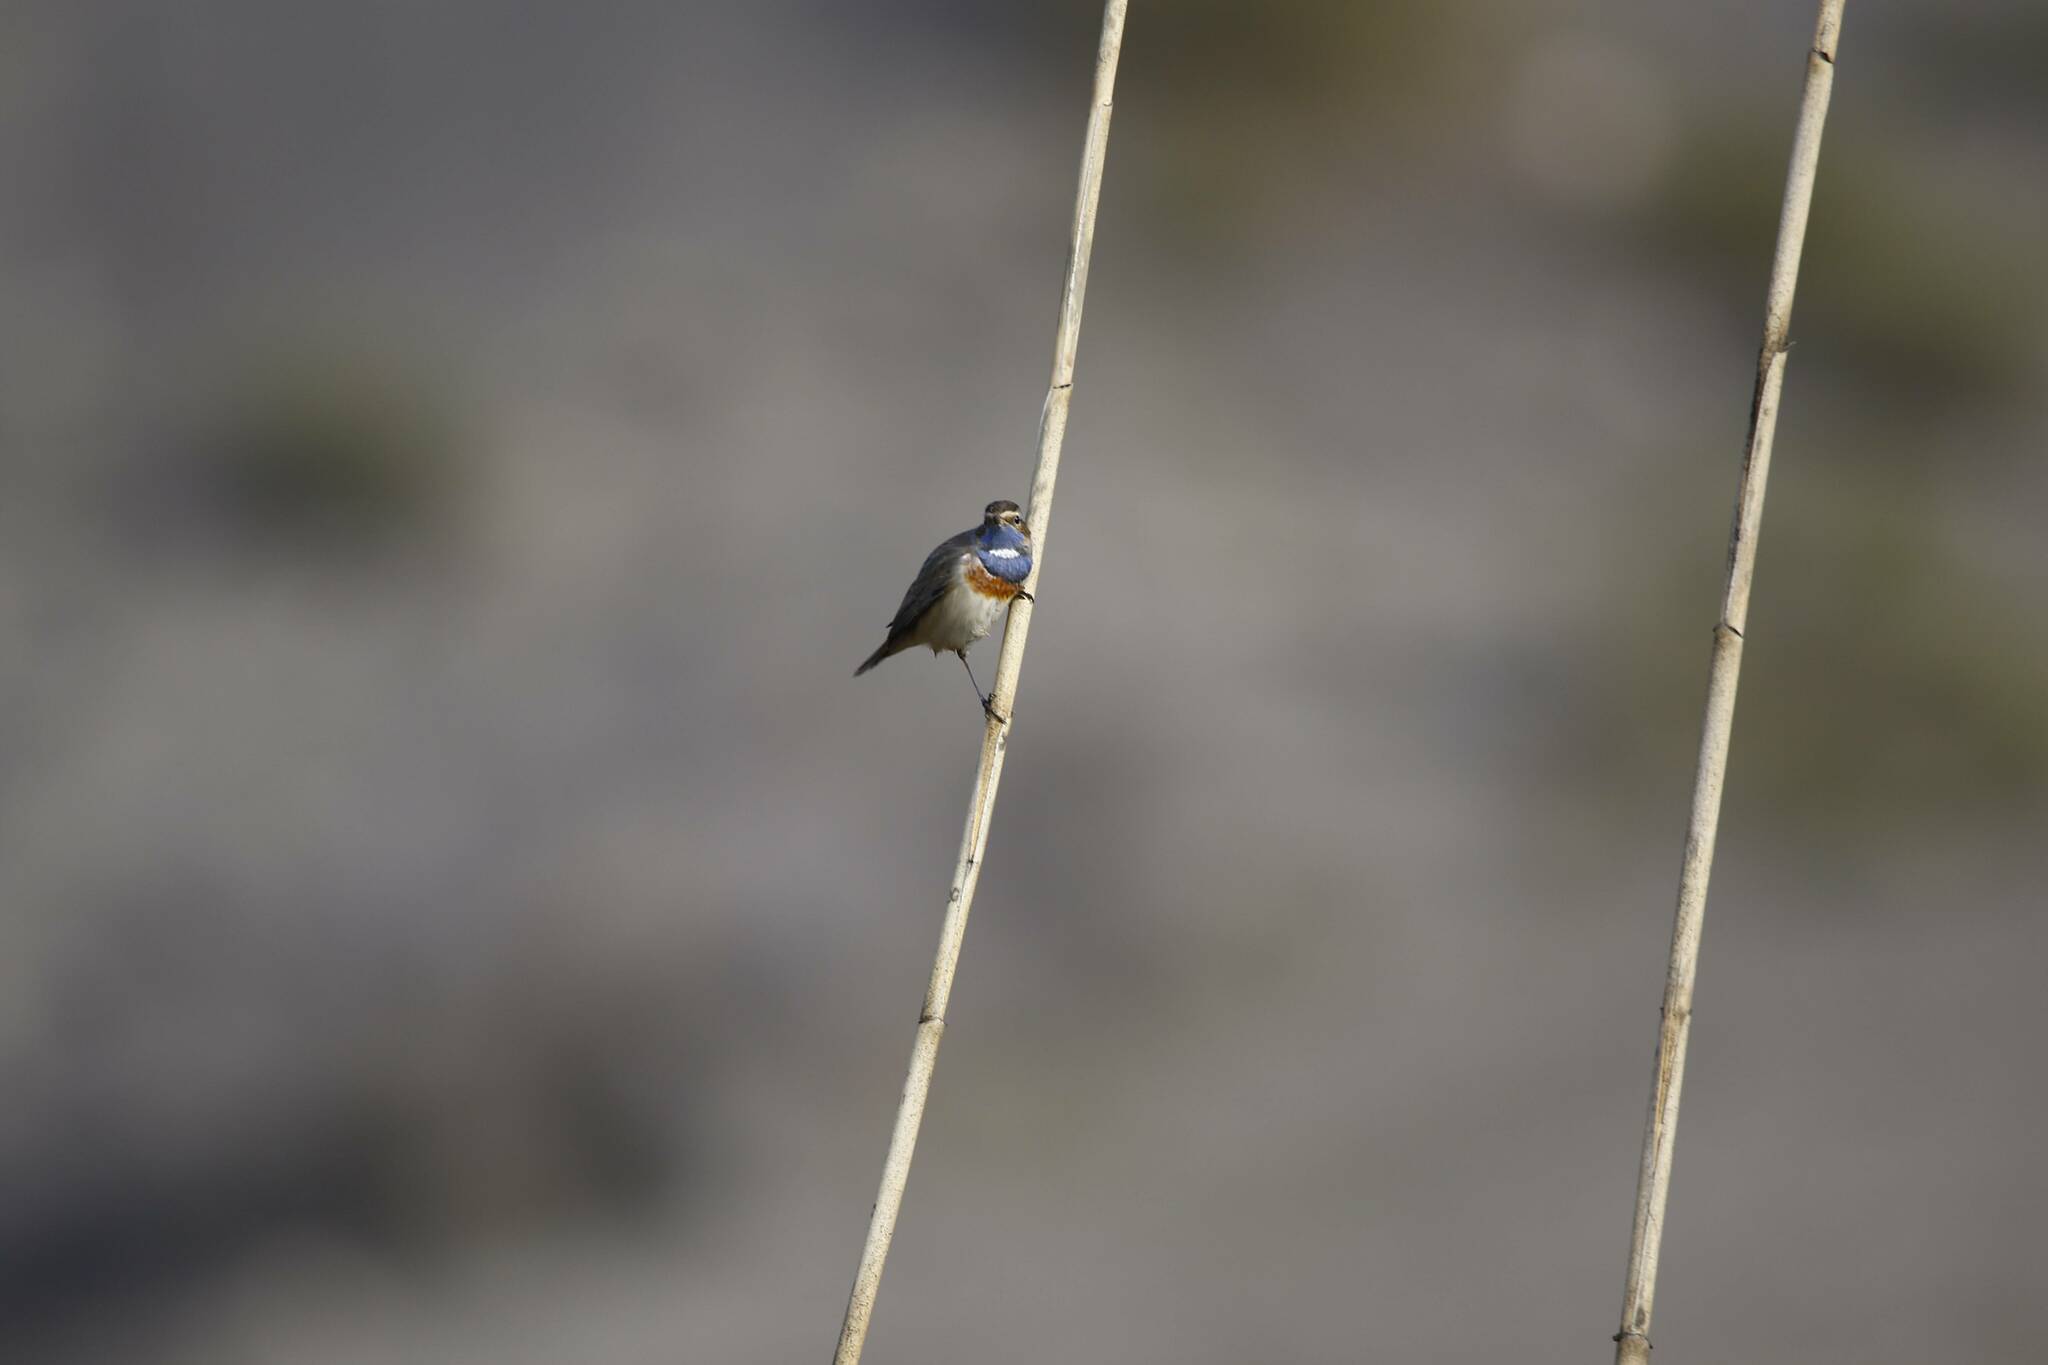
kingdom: Animalia
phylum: Chordata
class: Aves
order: Passeriformes
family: Muscicapidae
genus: Luscinia
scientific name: Luscinia svecica
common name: Bluethroat
